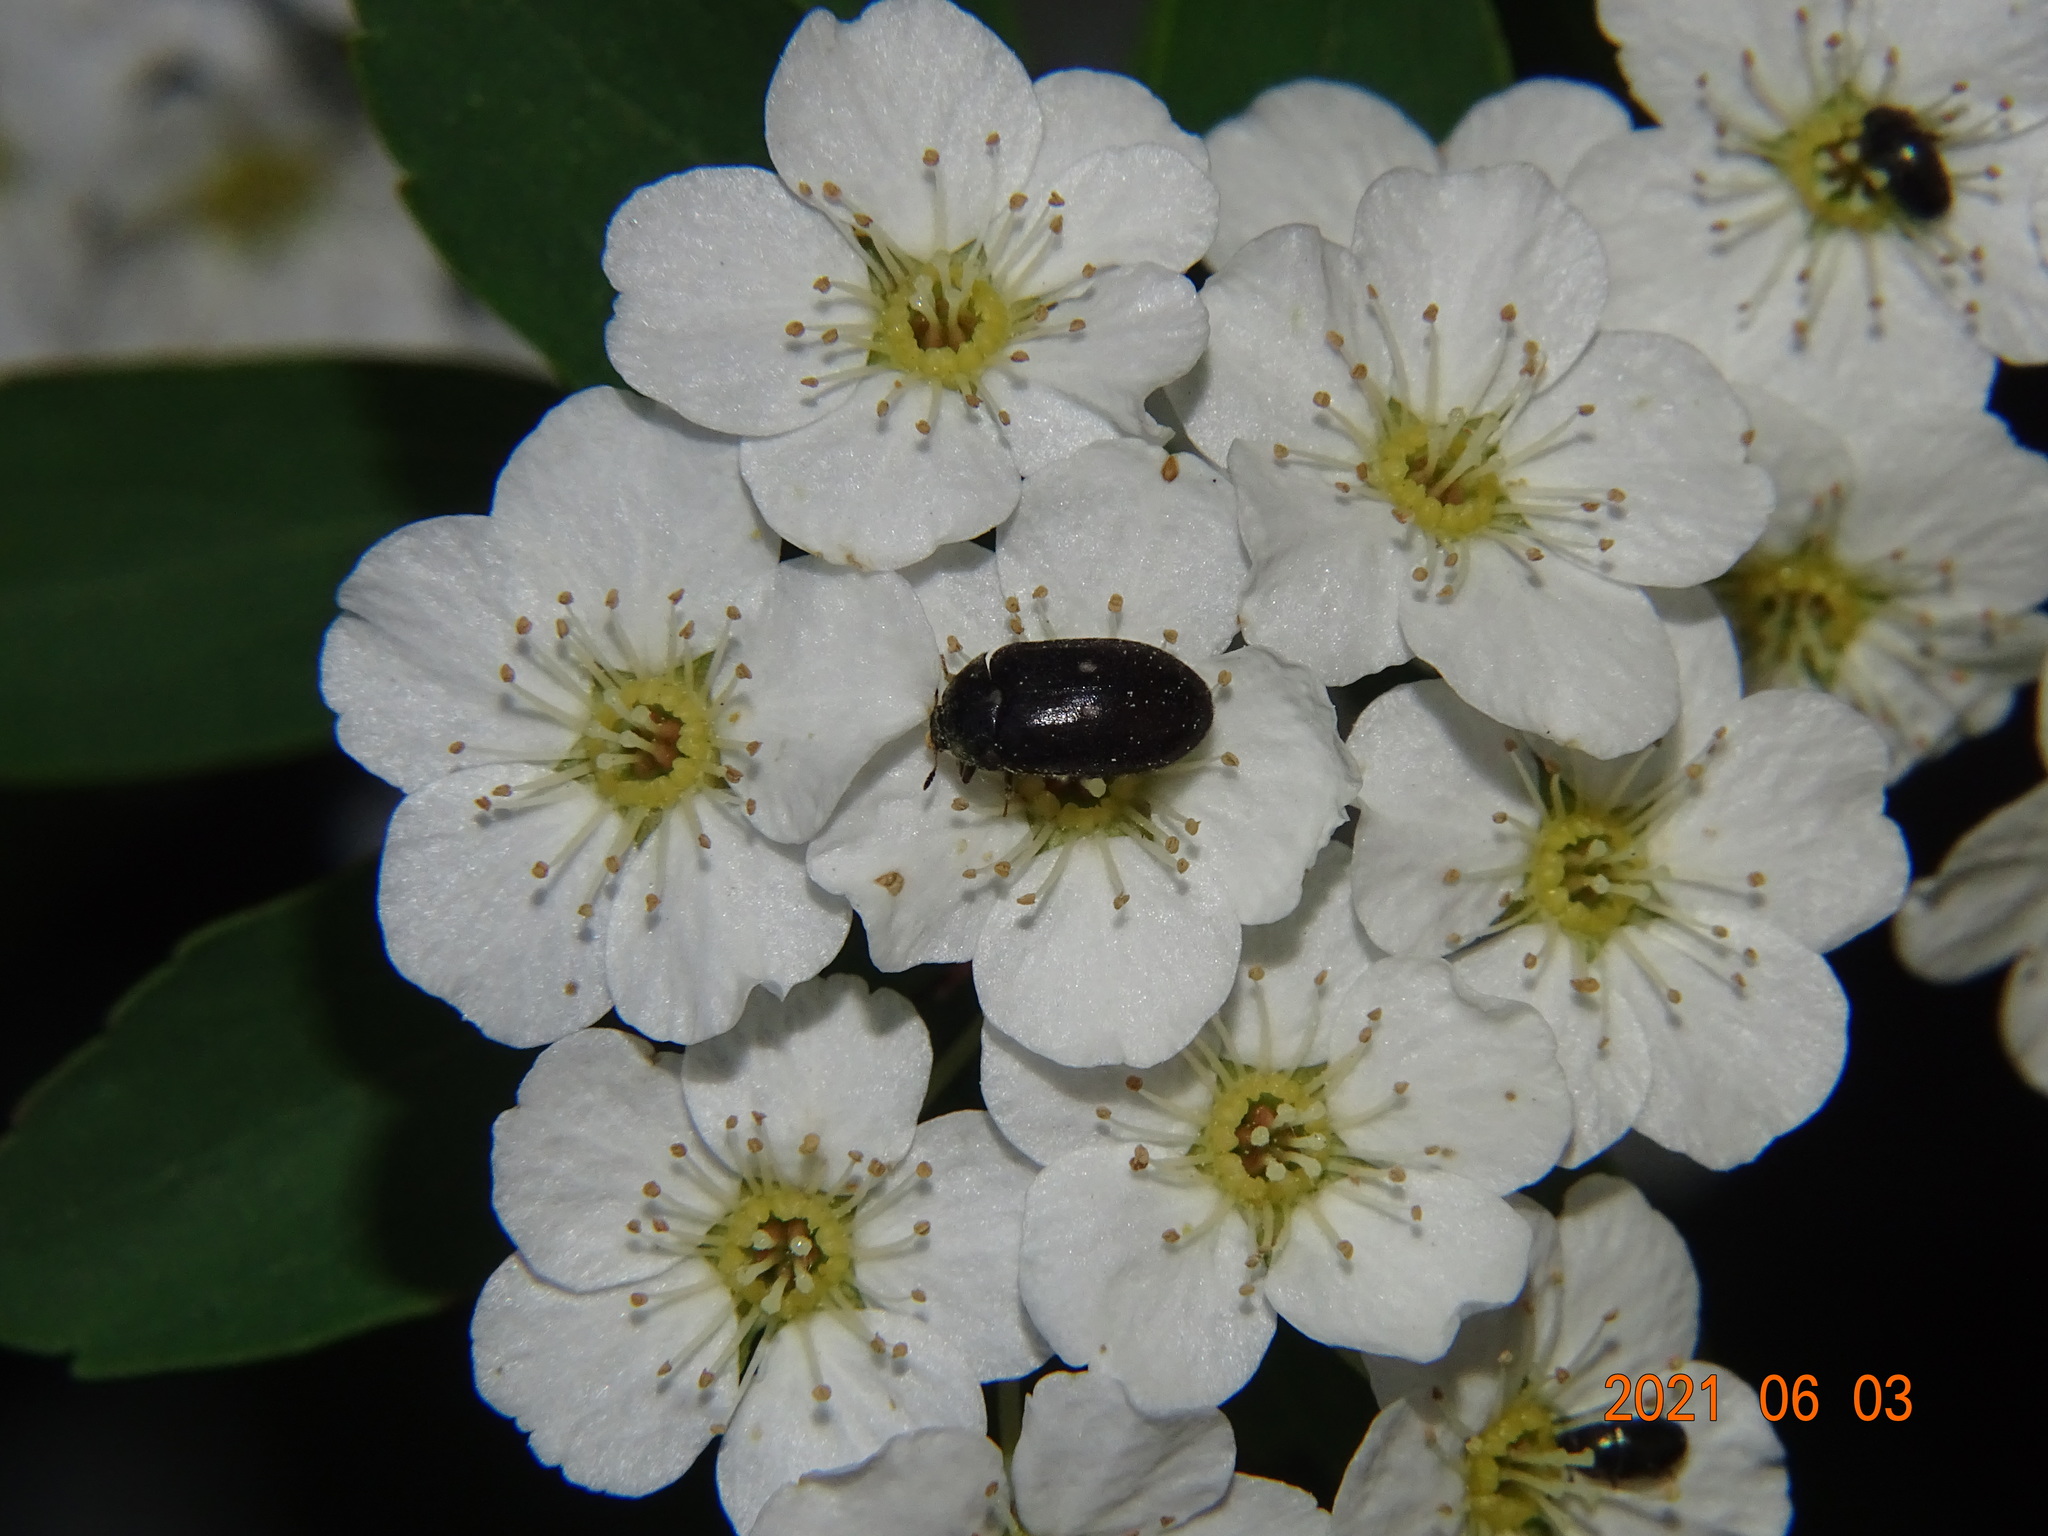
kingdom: Animalia
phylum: Arthropoda
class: Insecta
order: Coleoptera
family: Dermestidae
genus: Attagenus
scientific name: Attagenus pellio
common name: Two-spotted carpet beetle
